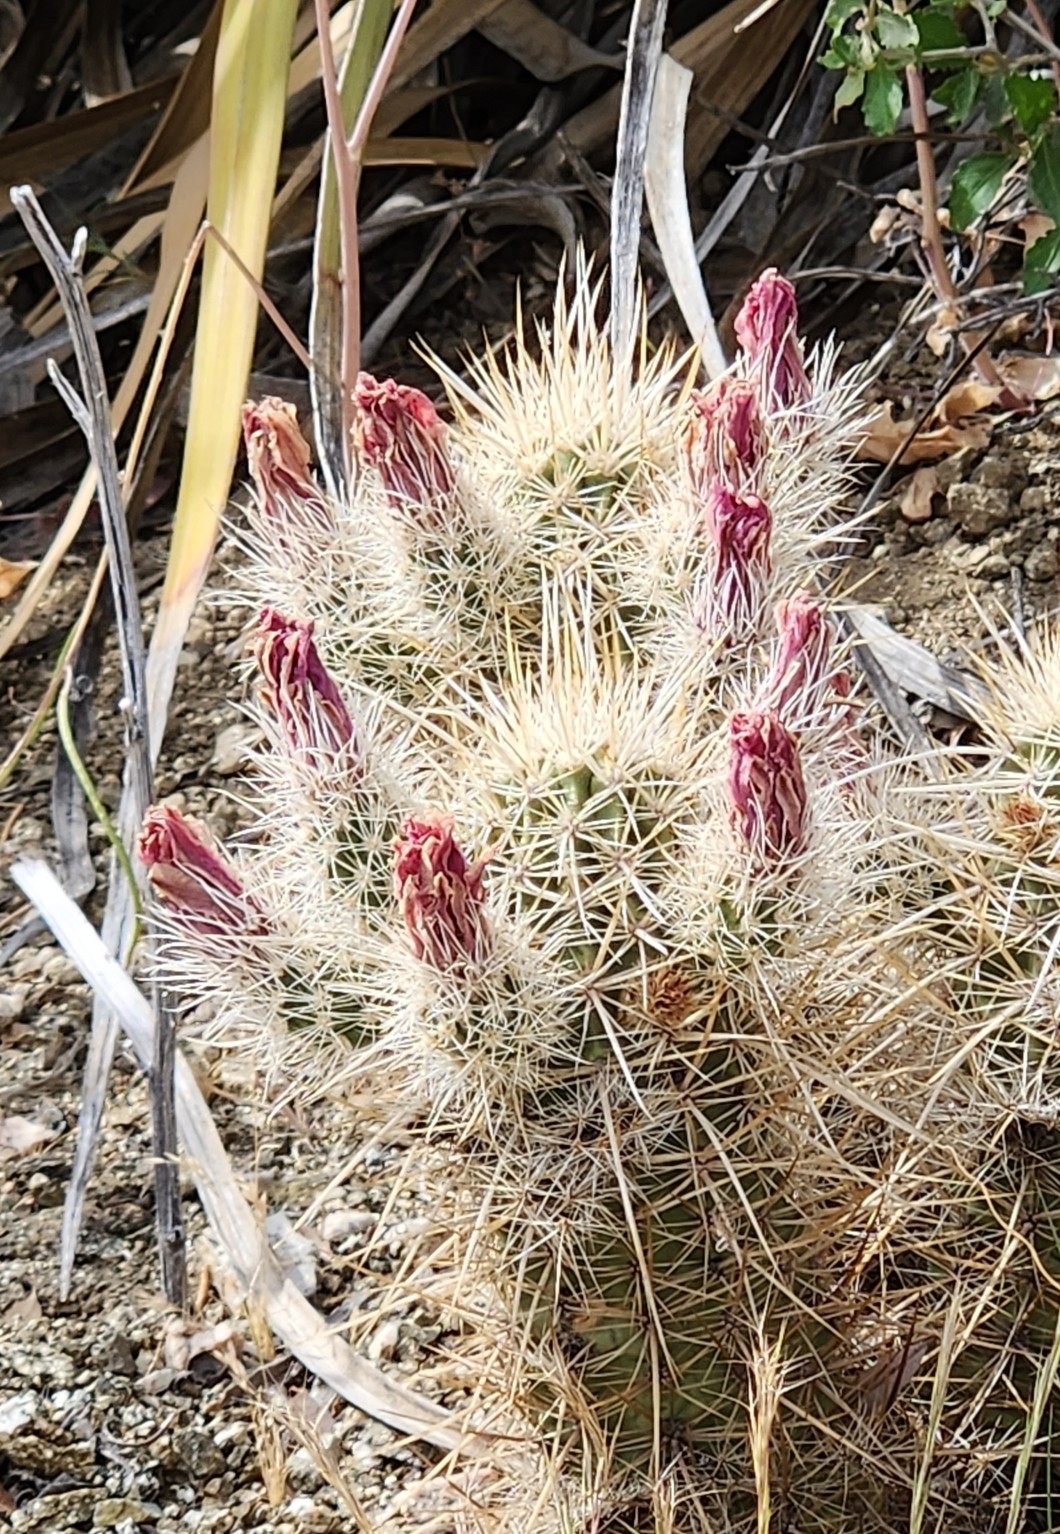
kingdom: Plantae
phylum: Tracheophyta
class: Magnoliopsida
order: Caryophyllales
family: Cactaceae
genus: Echinocereus
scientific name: Echinocereus engelmannii
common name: Engelmann's hedgehog cactus
